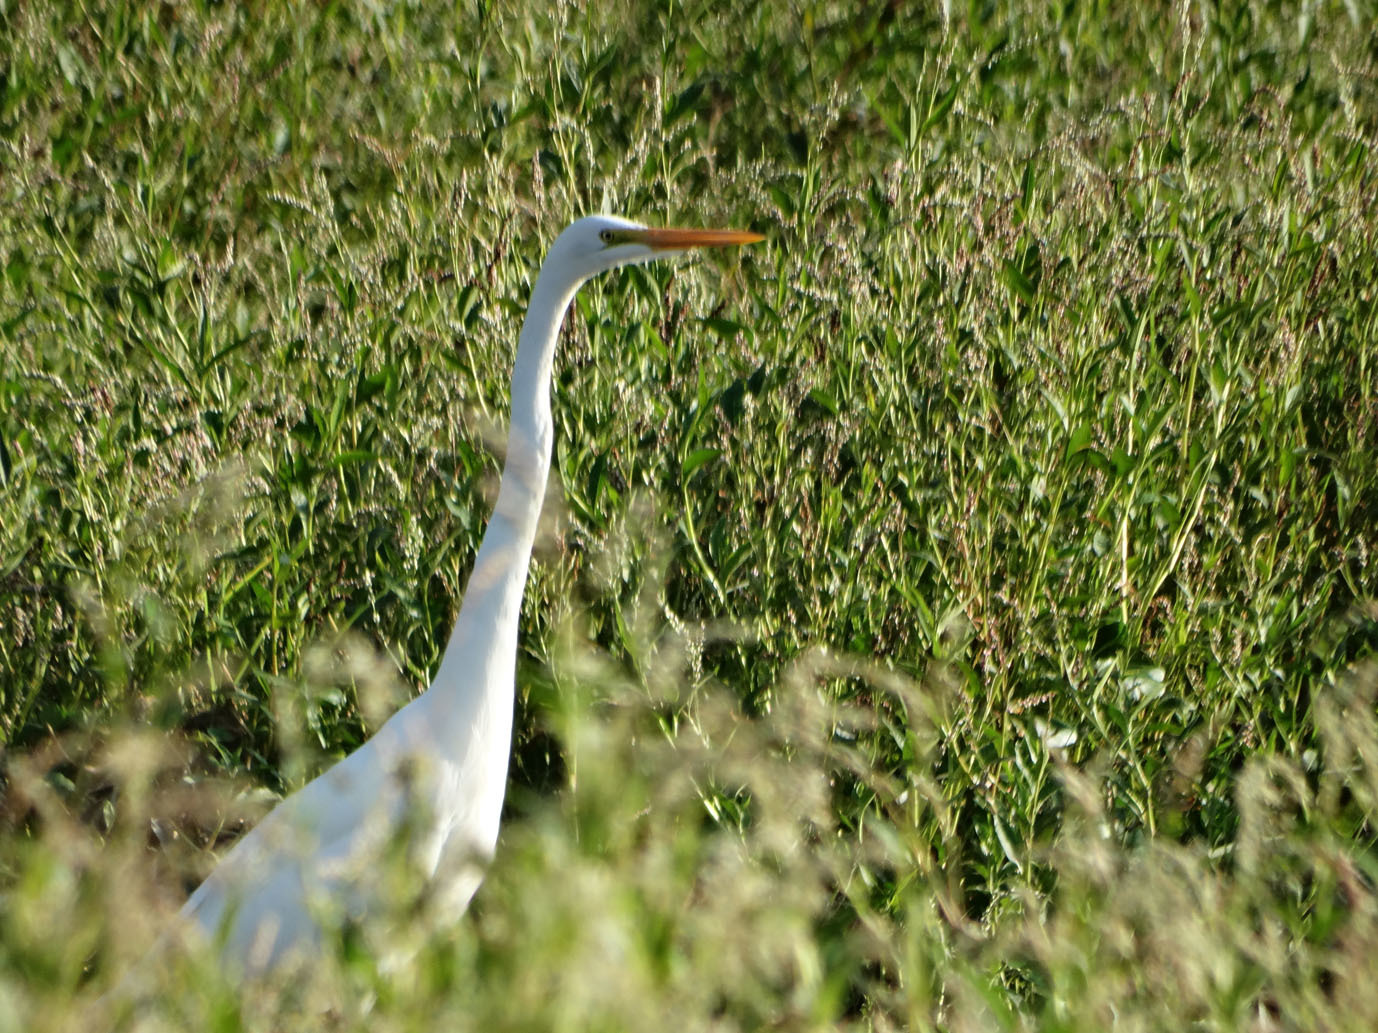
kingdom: Animalia
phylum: Chordata
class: Aves
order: Pelecaniformes
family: Ardeidae
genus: Ardea
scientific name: Ardea alba
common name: Great egret
